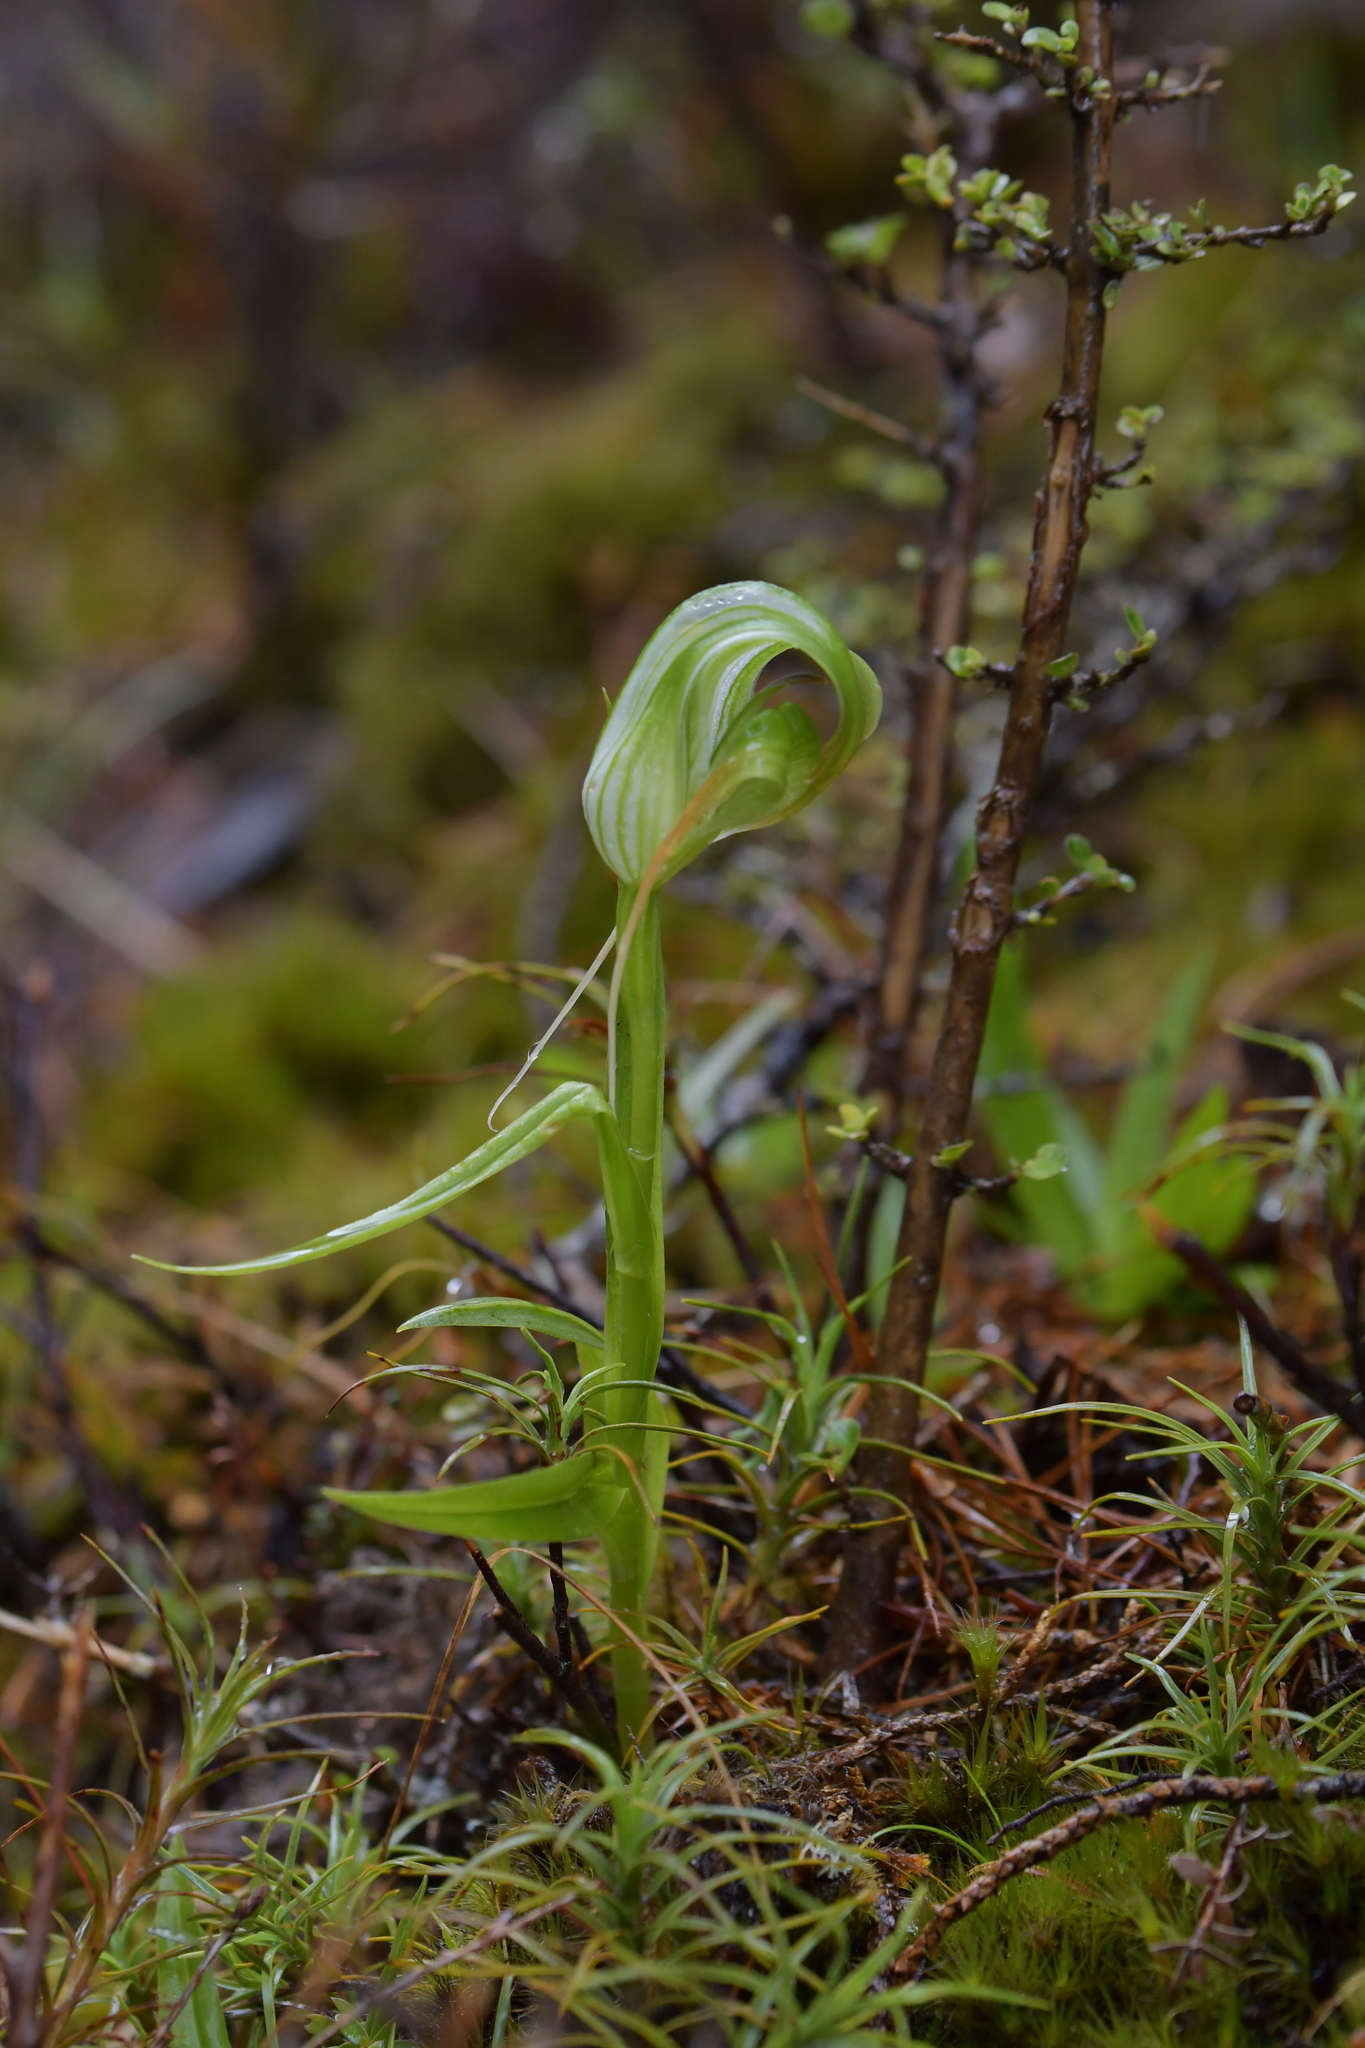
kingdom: Plantae
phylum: Tracheophyta
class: Liliopsida
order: Asparagales
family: Orchidaceae
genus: Pterostylis
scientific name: Pterostylis patens
